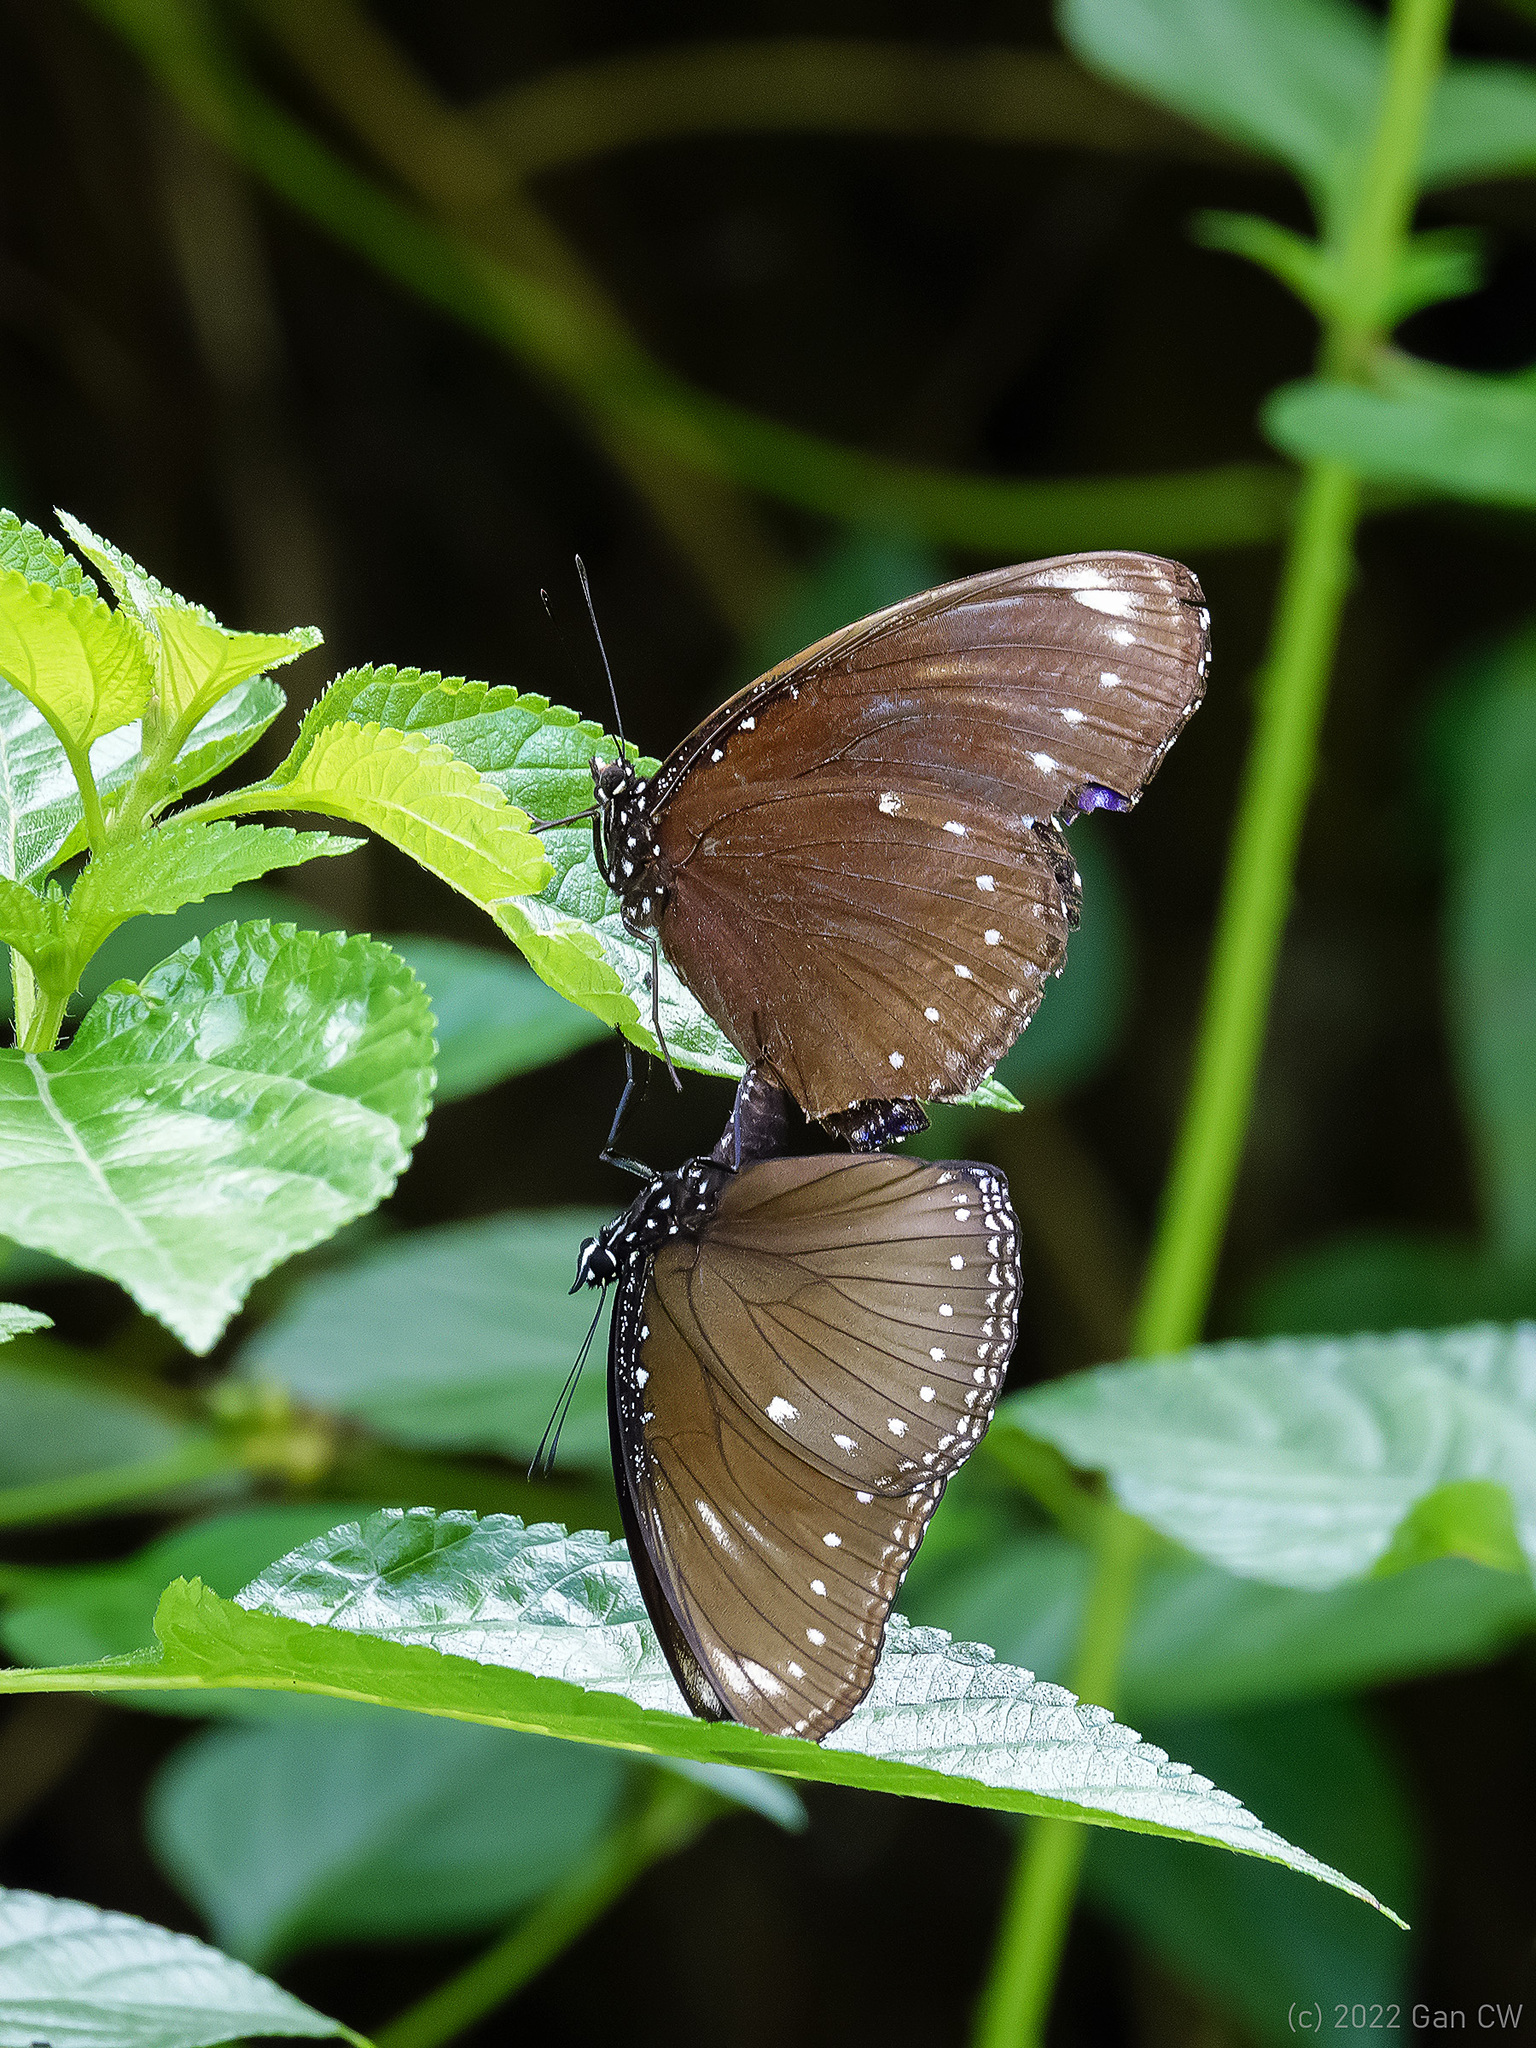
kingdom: Animalia
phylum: Arthropoda
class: Insecta
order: Lepidoptera
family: Nymphalidae
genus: Hypolimnas
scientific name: Hypolimnas anomala
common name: Malayan eggfly
